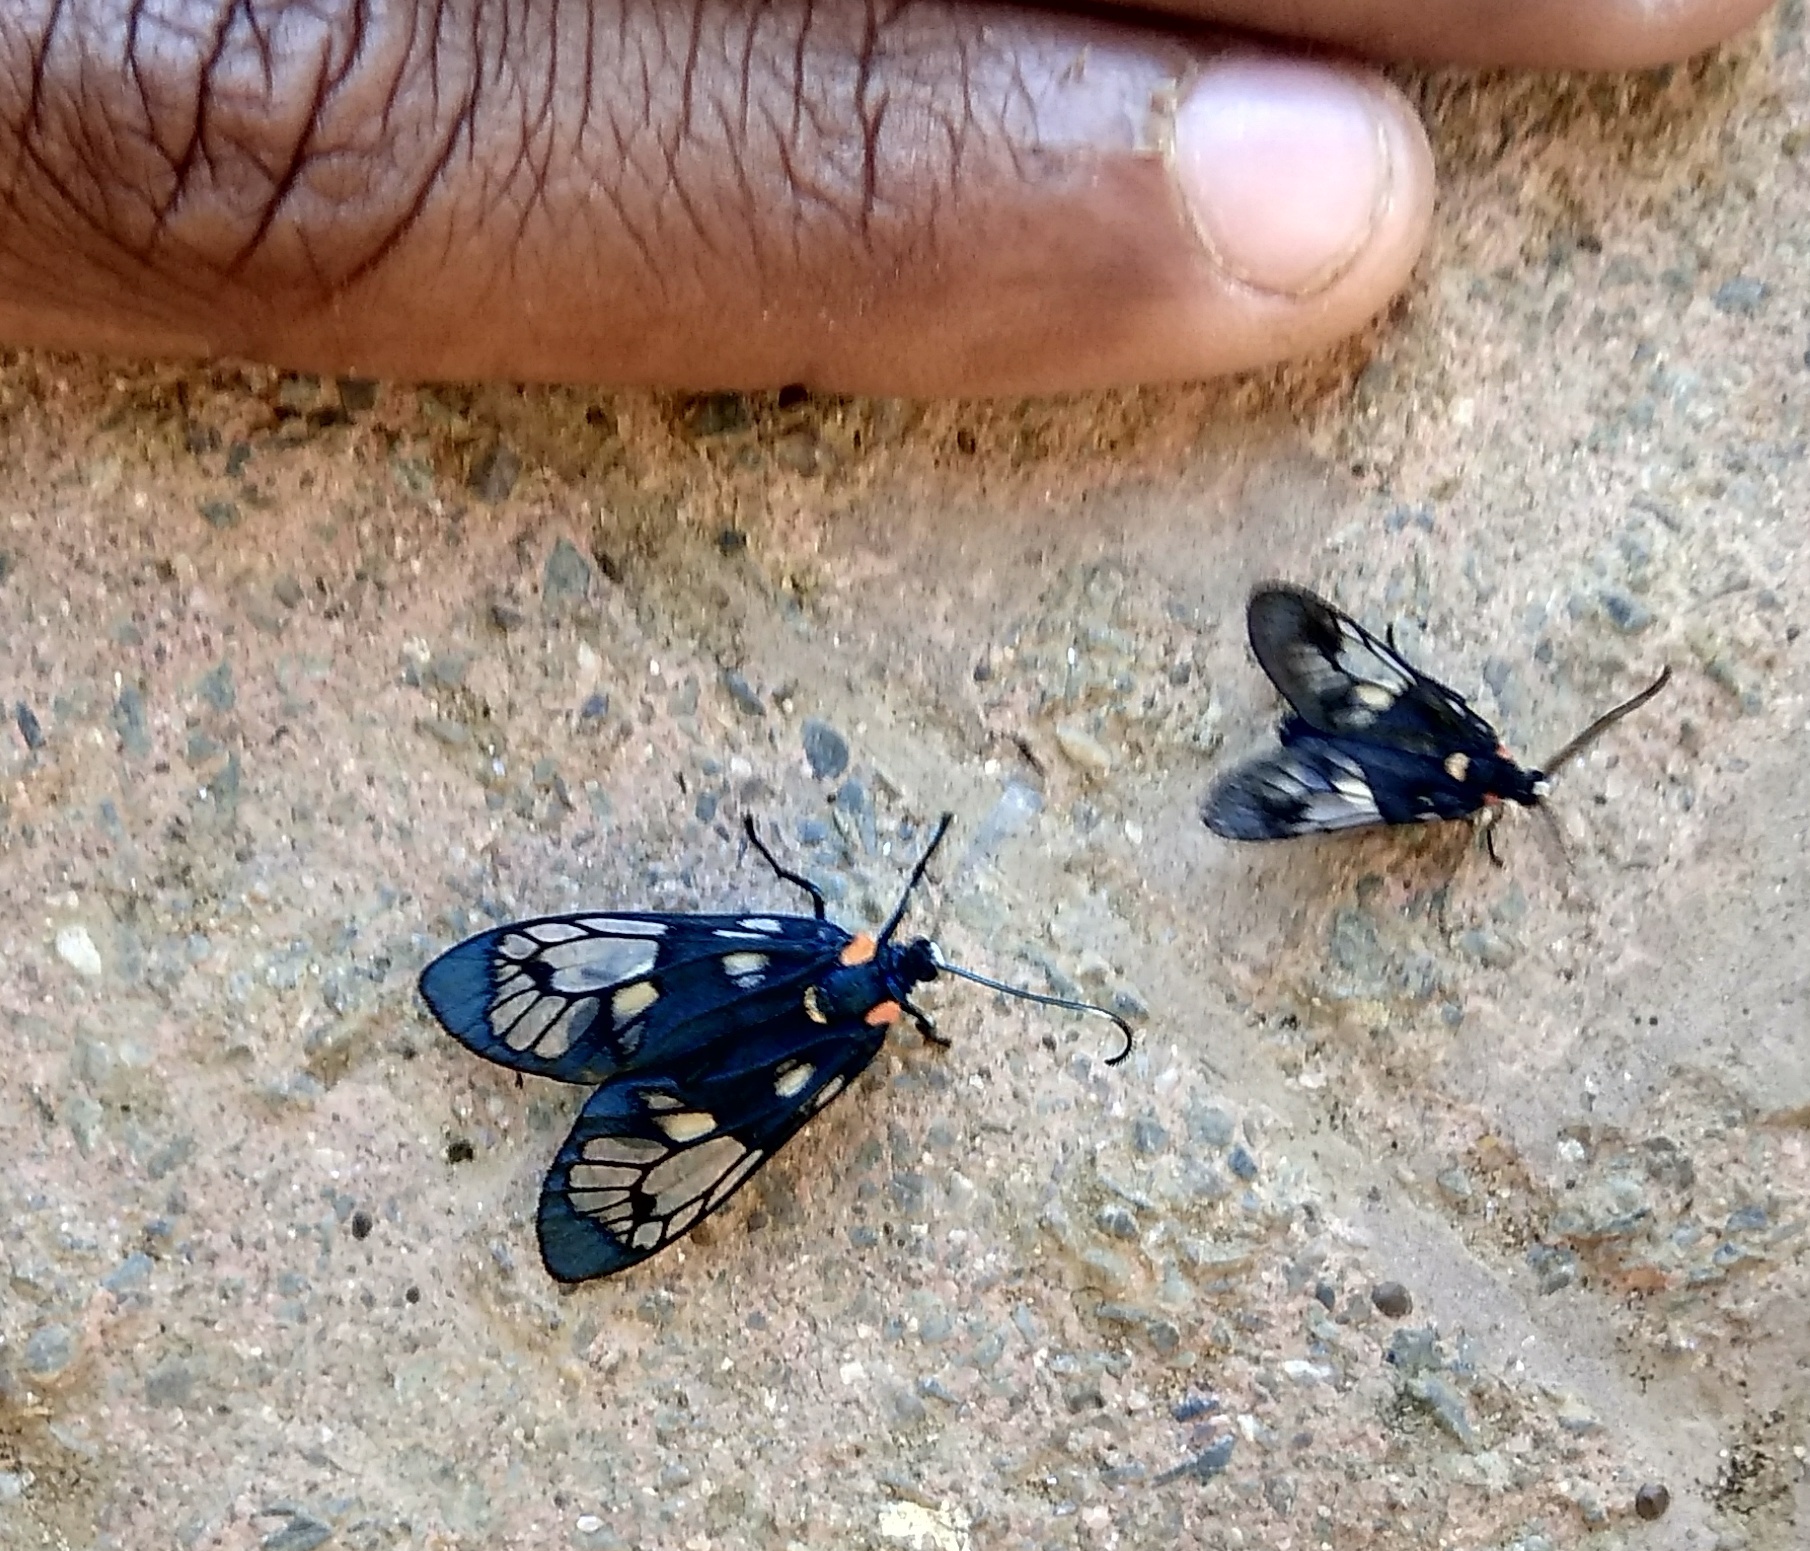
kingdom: Animalia
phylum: Arthropoda
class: Insecta
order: Lepidoptera
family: Zygaenidae
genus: Trypanophora
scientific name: Trypanophora semihyalina
